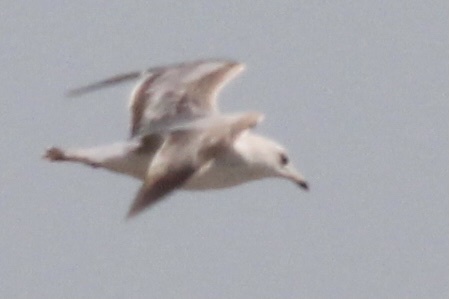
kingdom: Animalia
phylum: Chordata
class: Aves
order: Charadriiformes
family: Laridae
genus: Larus
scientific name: Larus delawarensis
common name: Ring-billed gull
